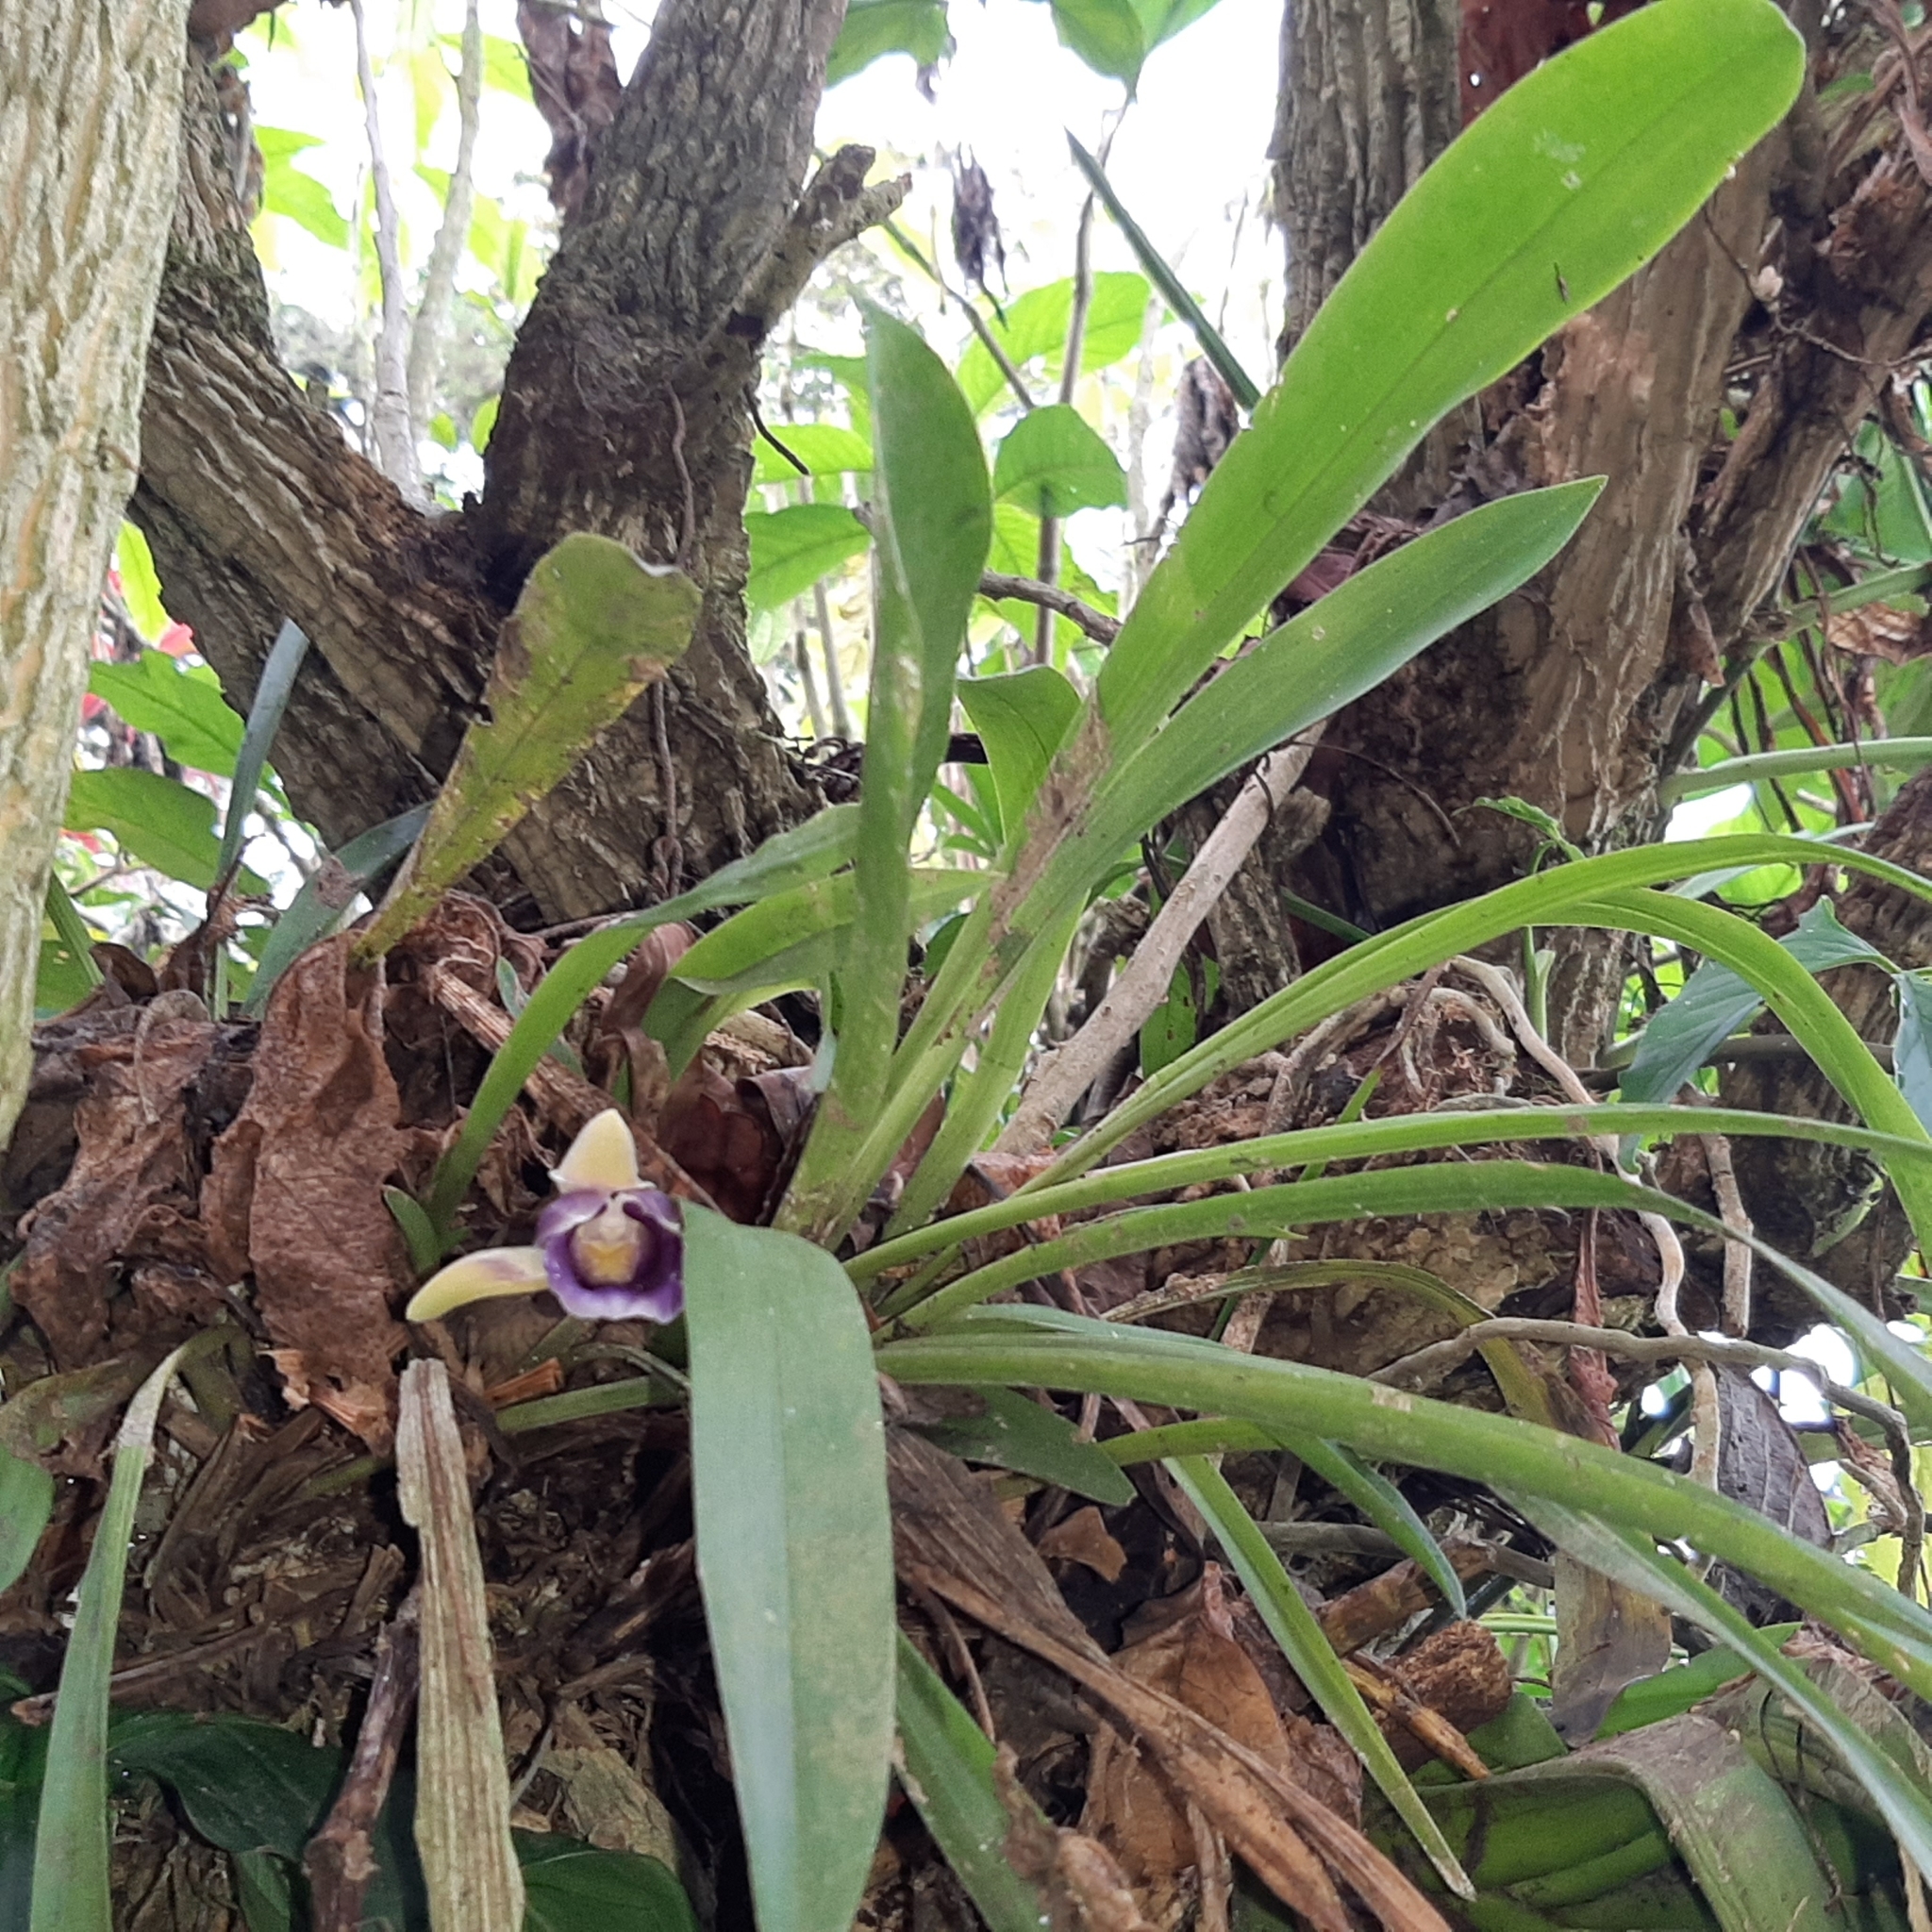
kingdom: Plantae
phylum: Tracheophyta
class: Liliopsida
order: Asparagales
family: Orchidaceae
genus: Warczewiczella
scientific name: Warczewiczella discolor
